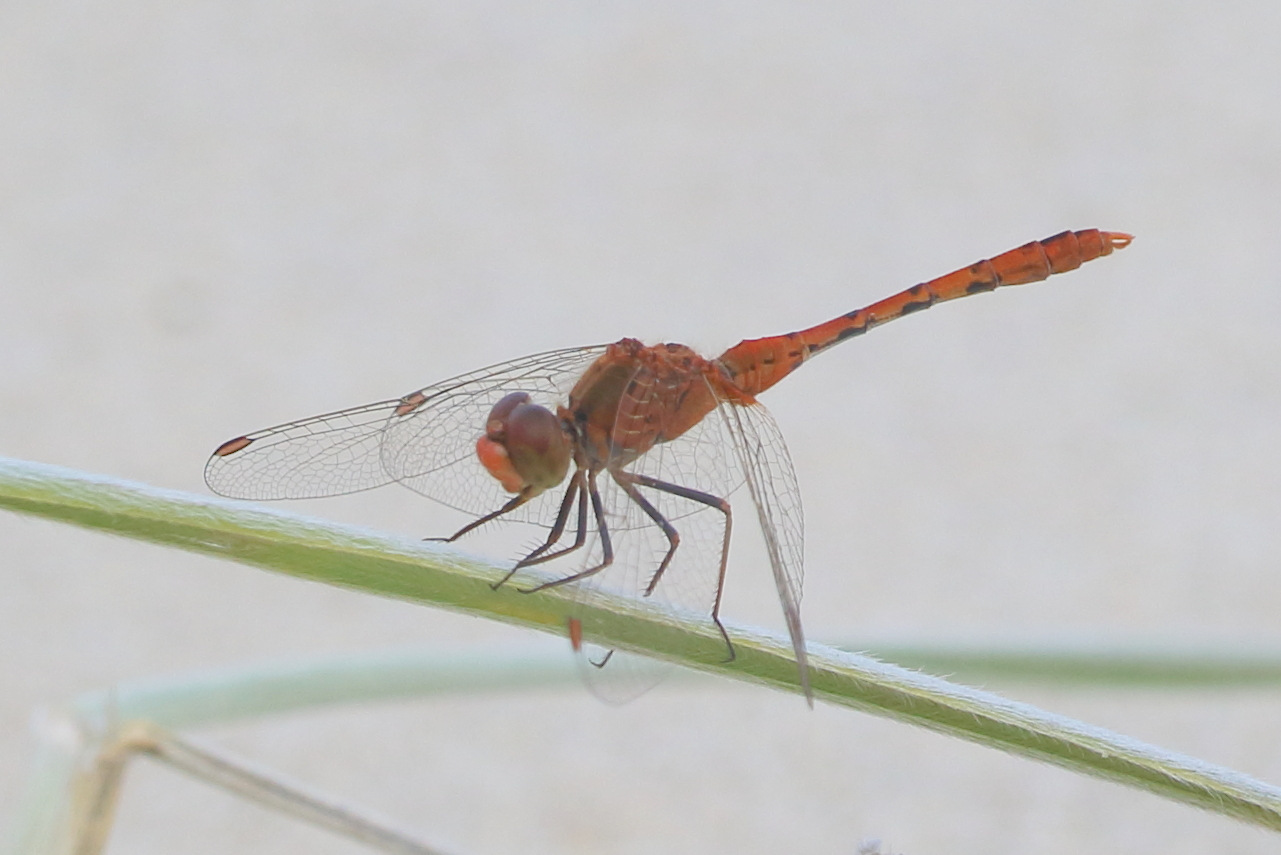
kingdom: Animalia
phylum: Arthropoda
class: Insecta
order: Odonata
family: Libellulidae
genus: Diplacodes
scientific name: Diplacodes bipunctata
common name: Red percher dragonfly
